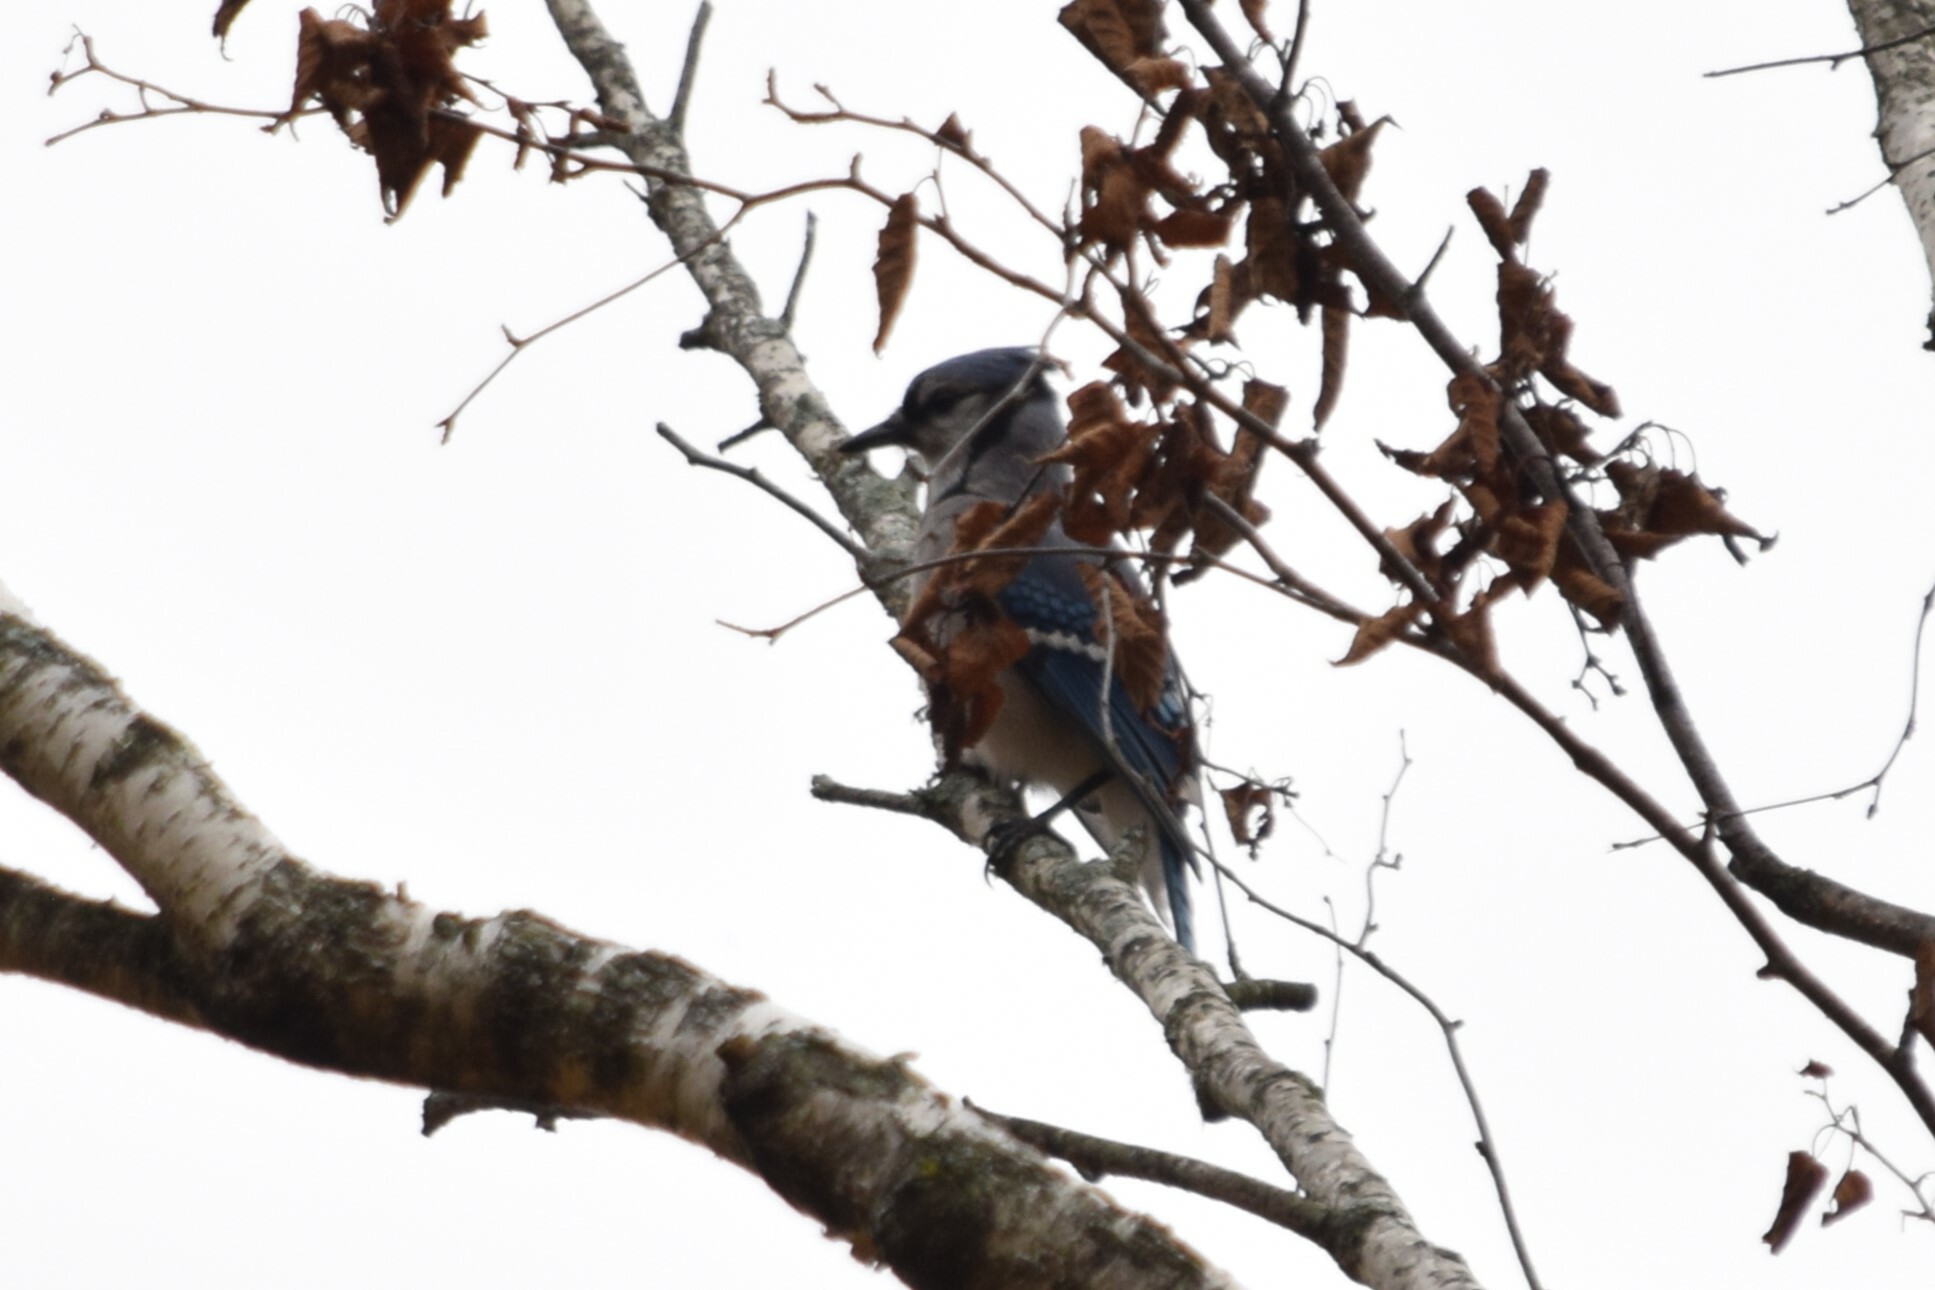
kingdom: Animalia
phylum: Chordata
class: Aves
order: Passeriformes
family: Corvidae
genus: Cyanocitta
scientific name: Cyanocitta cristata
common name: Blue jay
